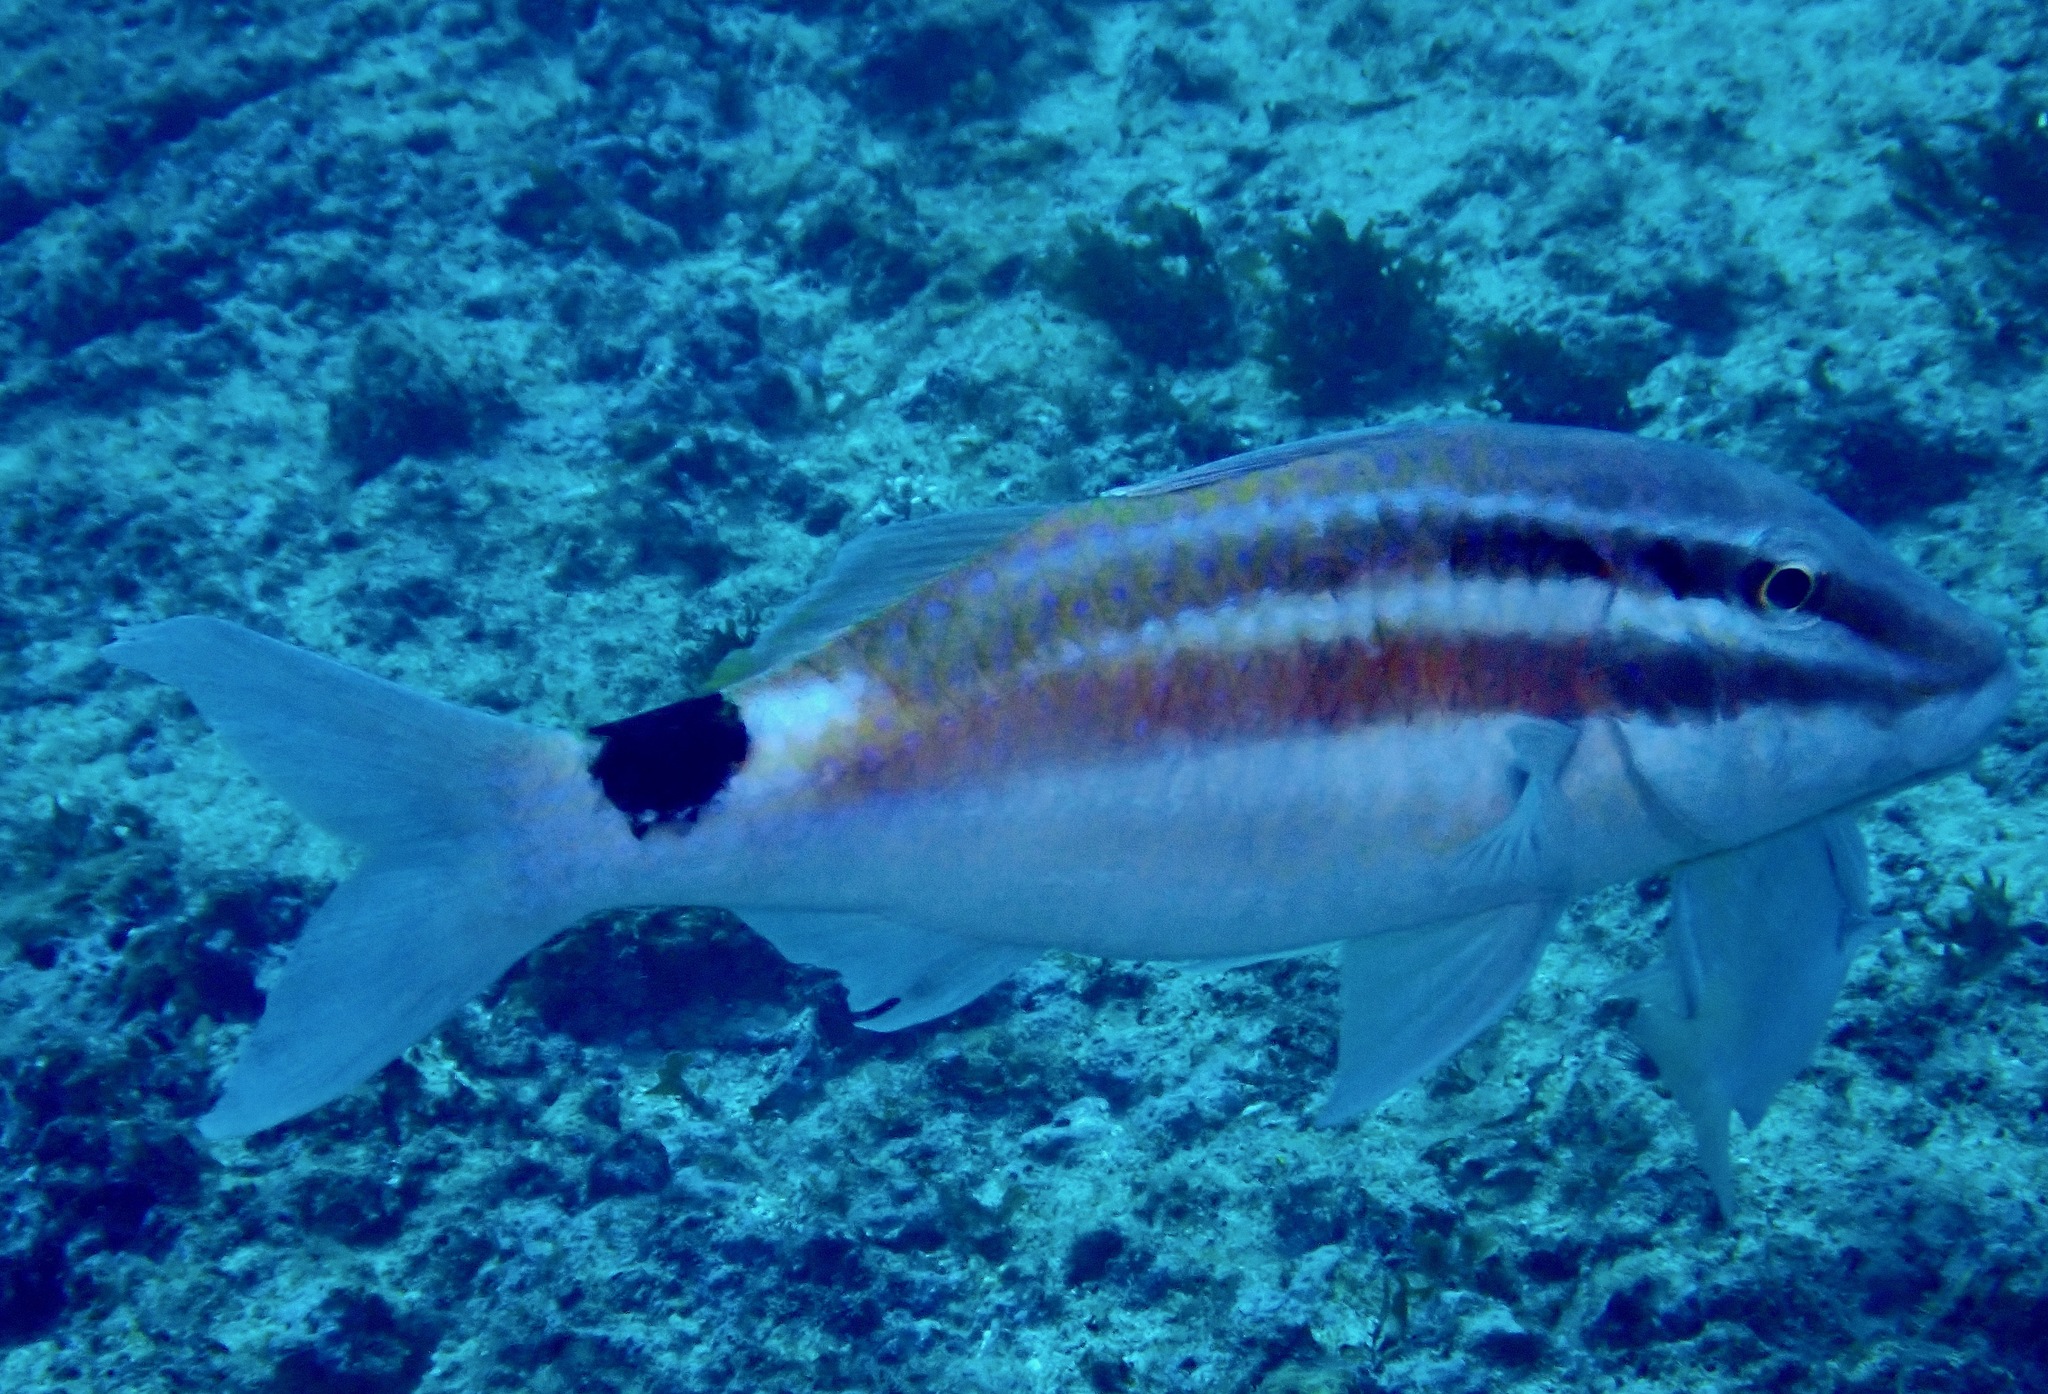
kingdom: Animalia
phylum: Chordata
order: Perciformes
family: Mullidae
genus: Parupeneus
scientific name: Parupeneus spilurus
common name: Blackspot goatfish
